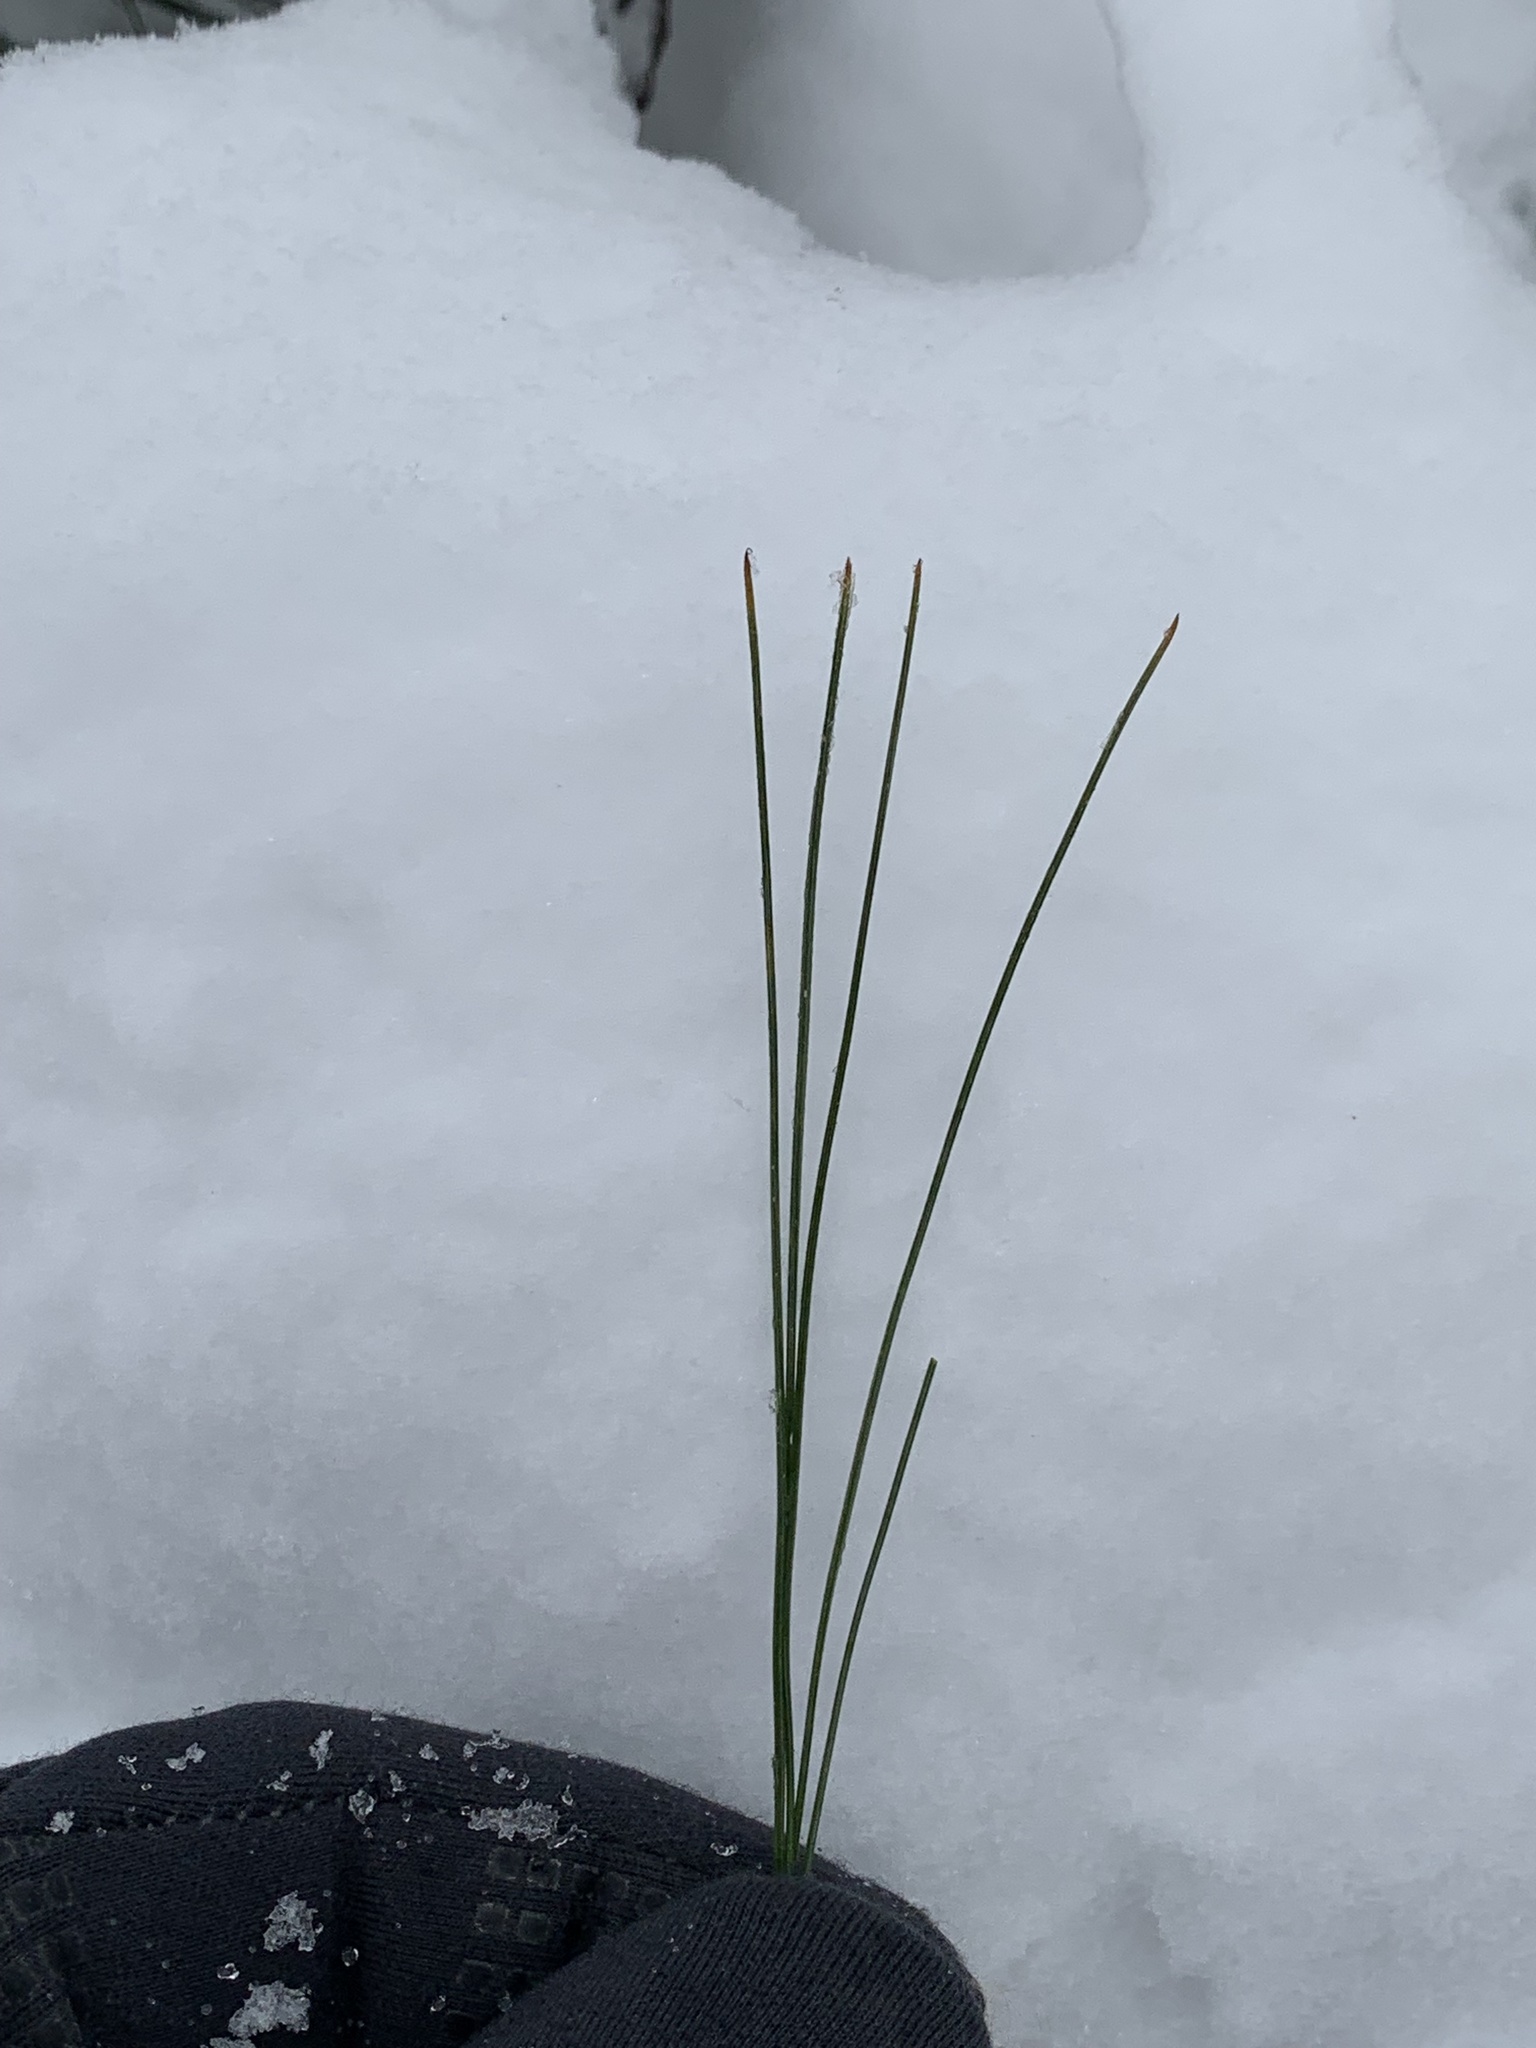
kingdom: Plantae
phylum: Tracheophyta
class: Pinopsida
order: Pinales
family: Pinaceae
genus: Pinus
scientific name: Pinus strobus
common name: Weymouth pine
